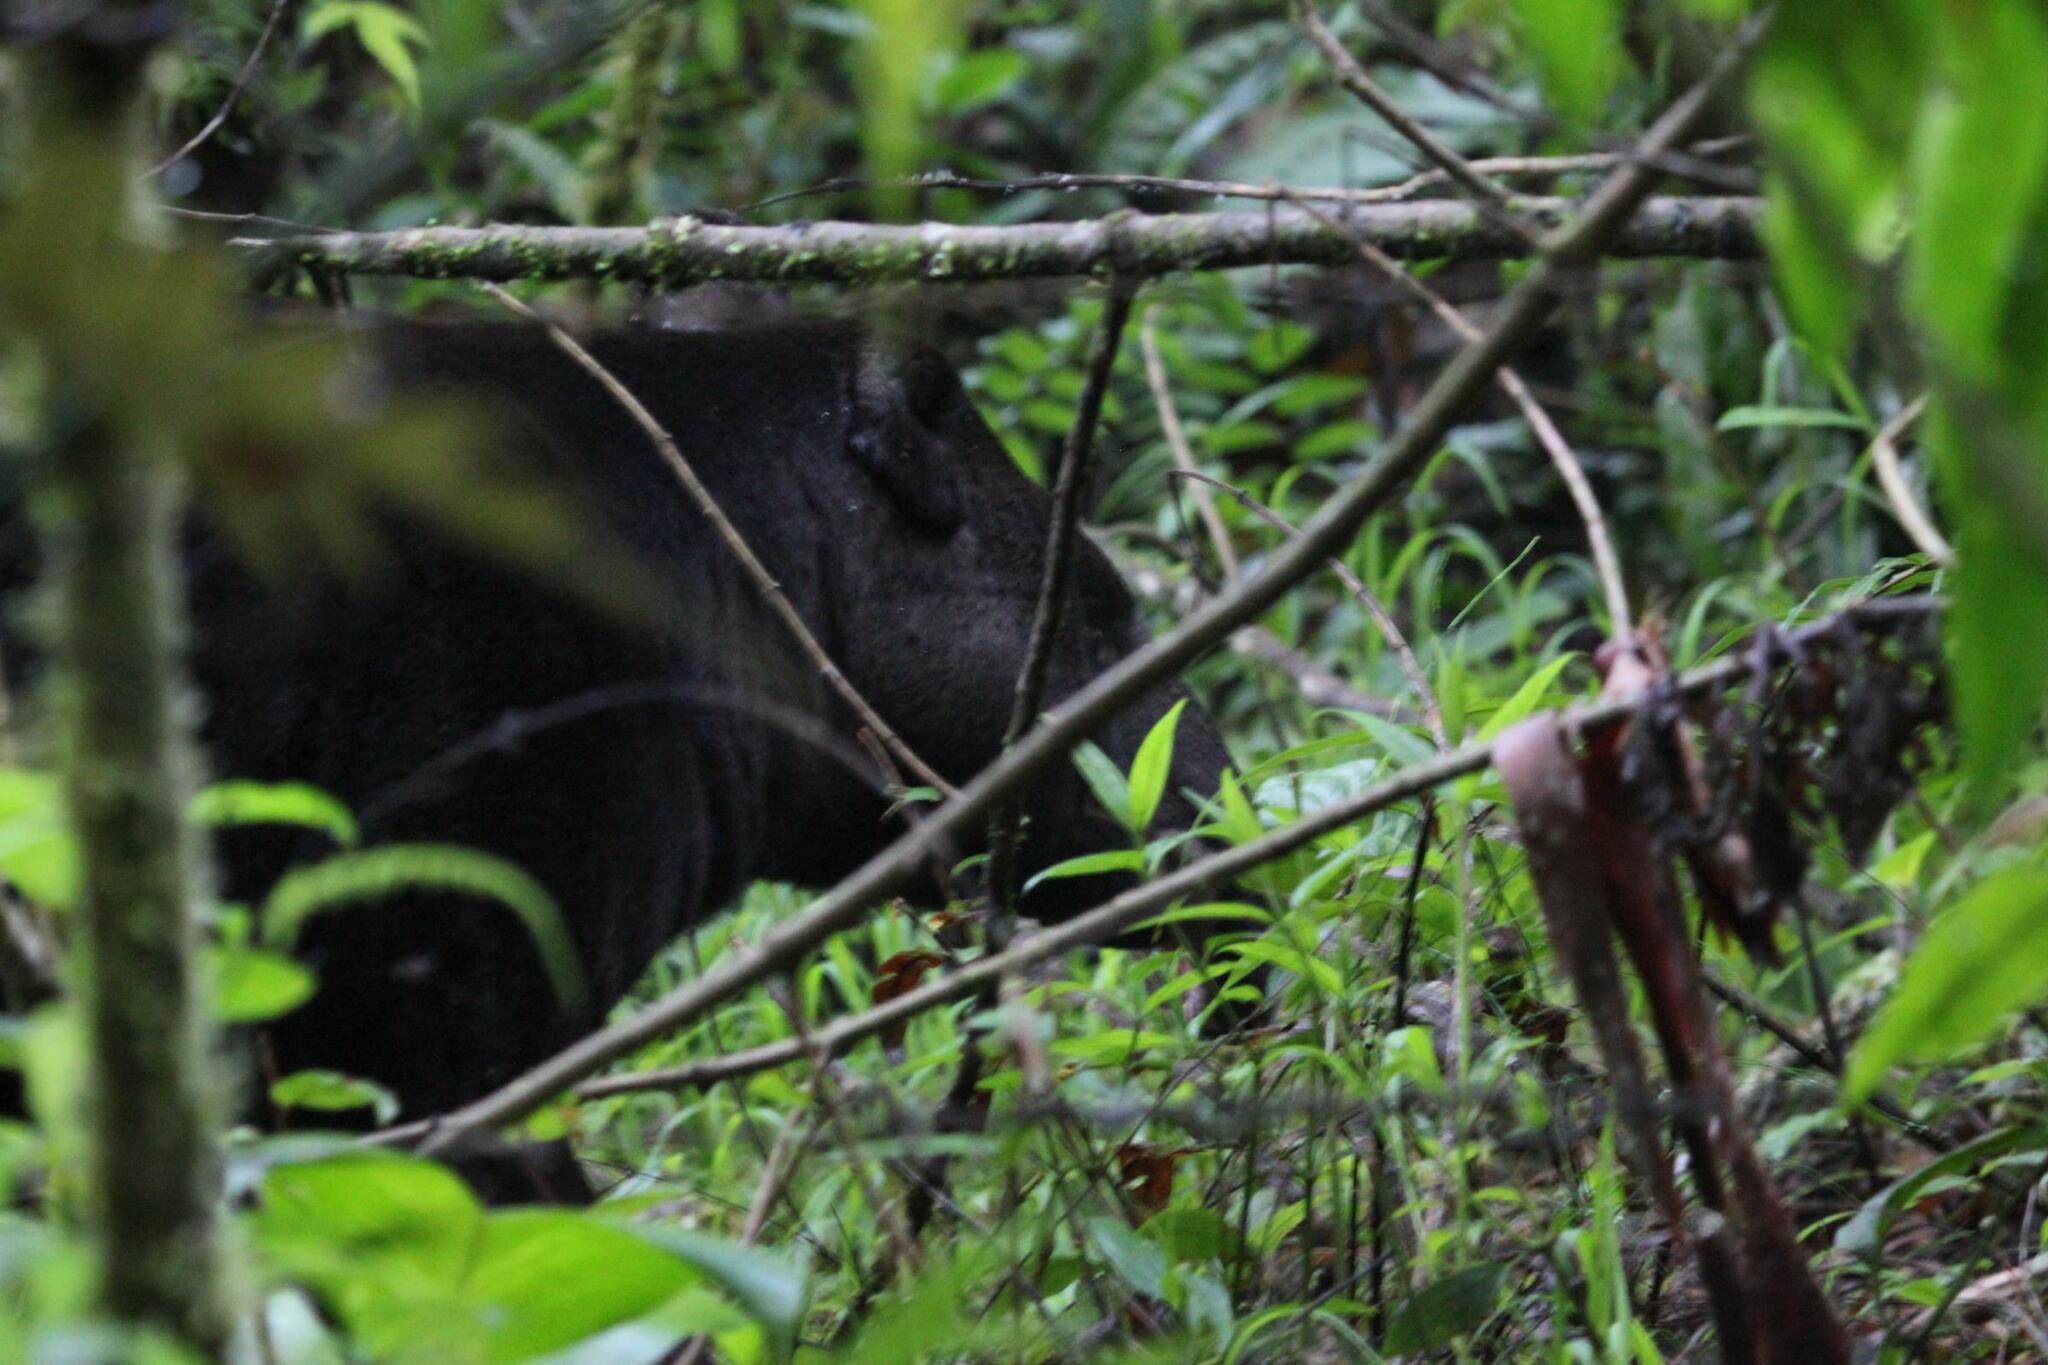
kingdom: Animalia
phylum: Chordata
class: Mammalia
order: Perissodactyla
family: Tapiridae
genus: Tapirus
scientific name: Tapirus pinchaque
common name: Mountain tapir
